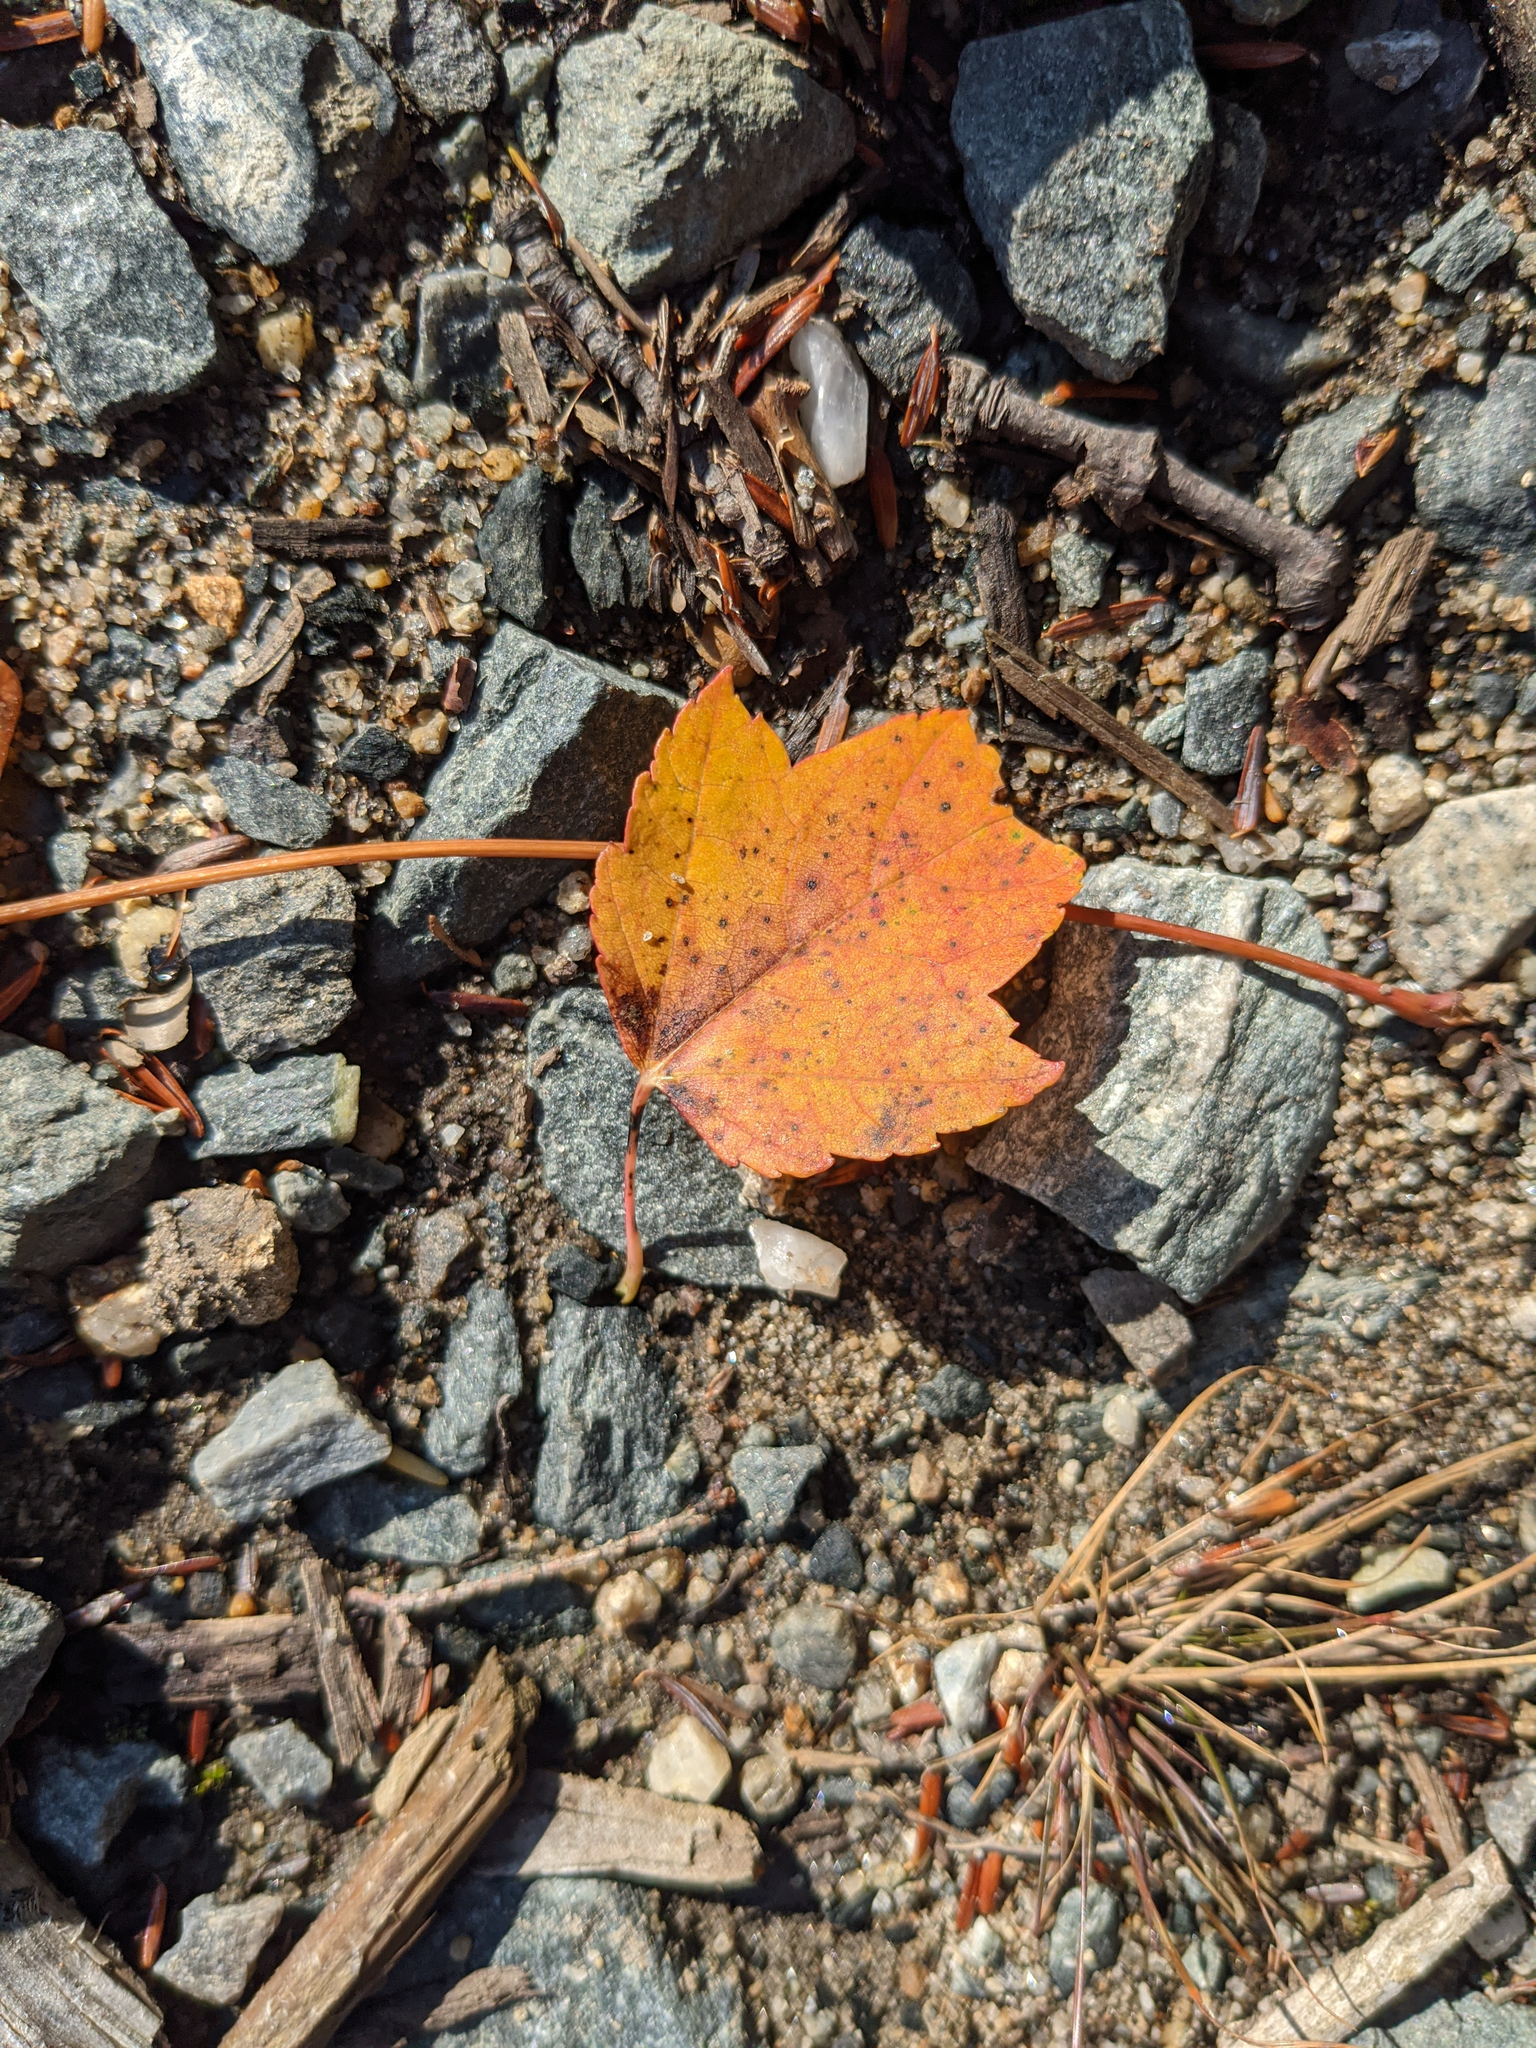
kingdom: Plantae
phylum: Tracheophyta
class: Magnoliopsida
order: Sapindales
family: Sapindaceae
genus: Acer
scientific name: Acer rubrum
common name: Red maple
